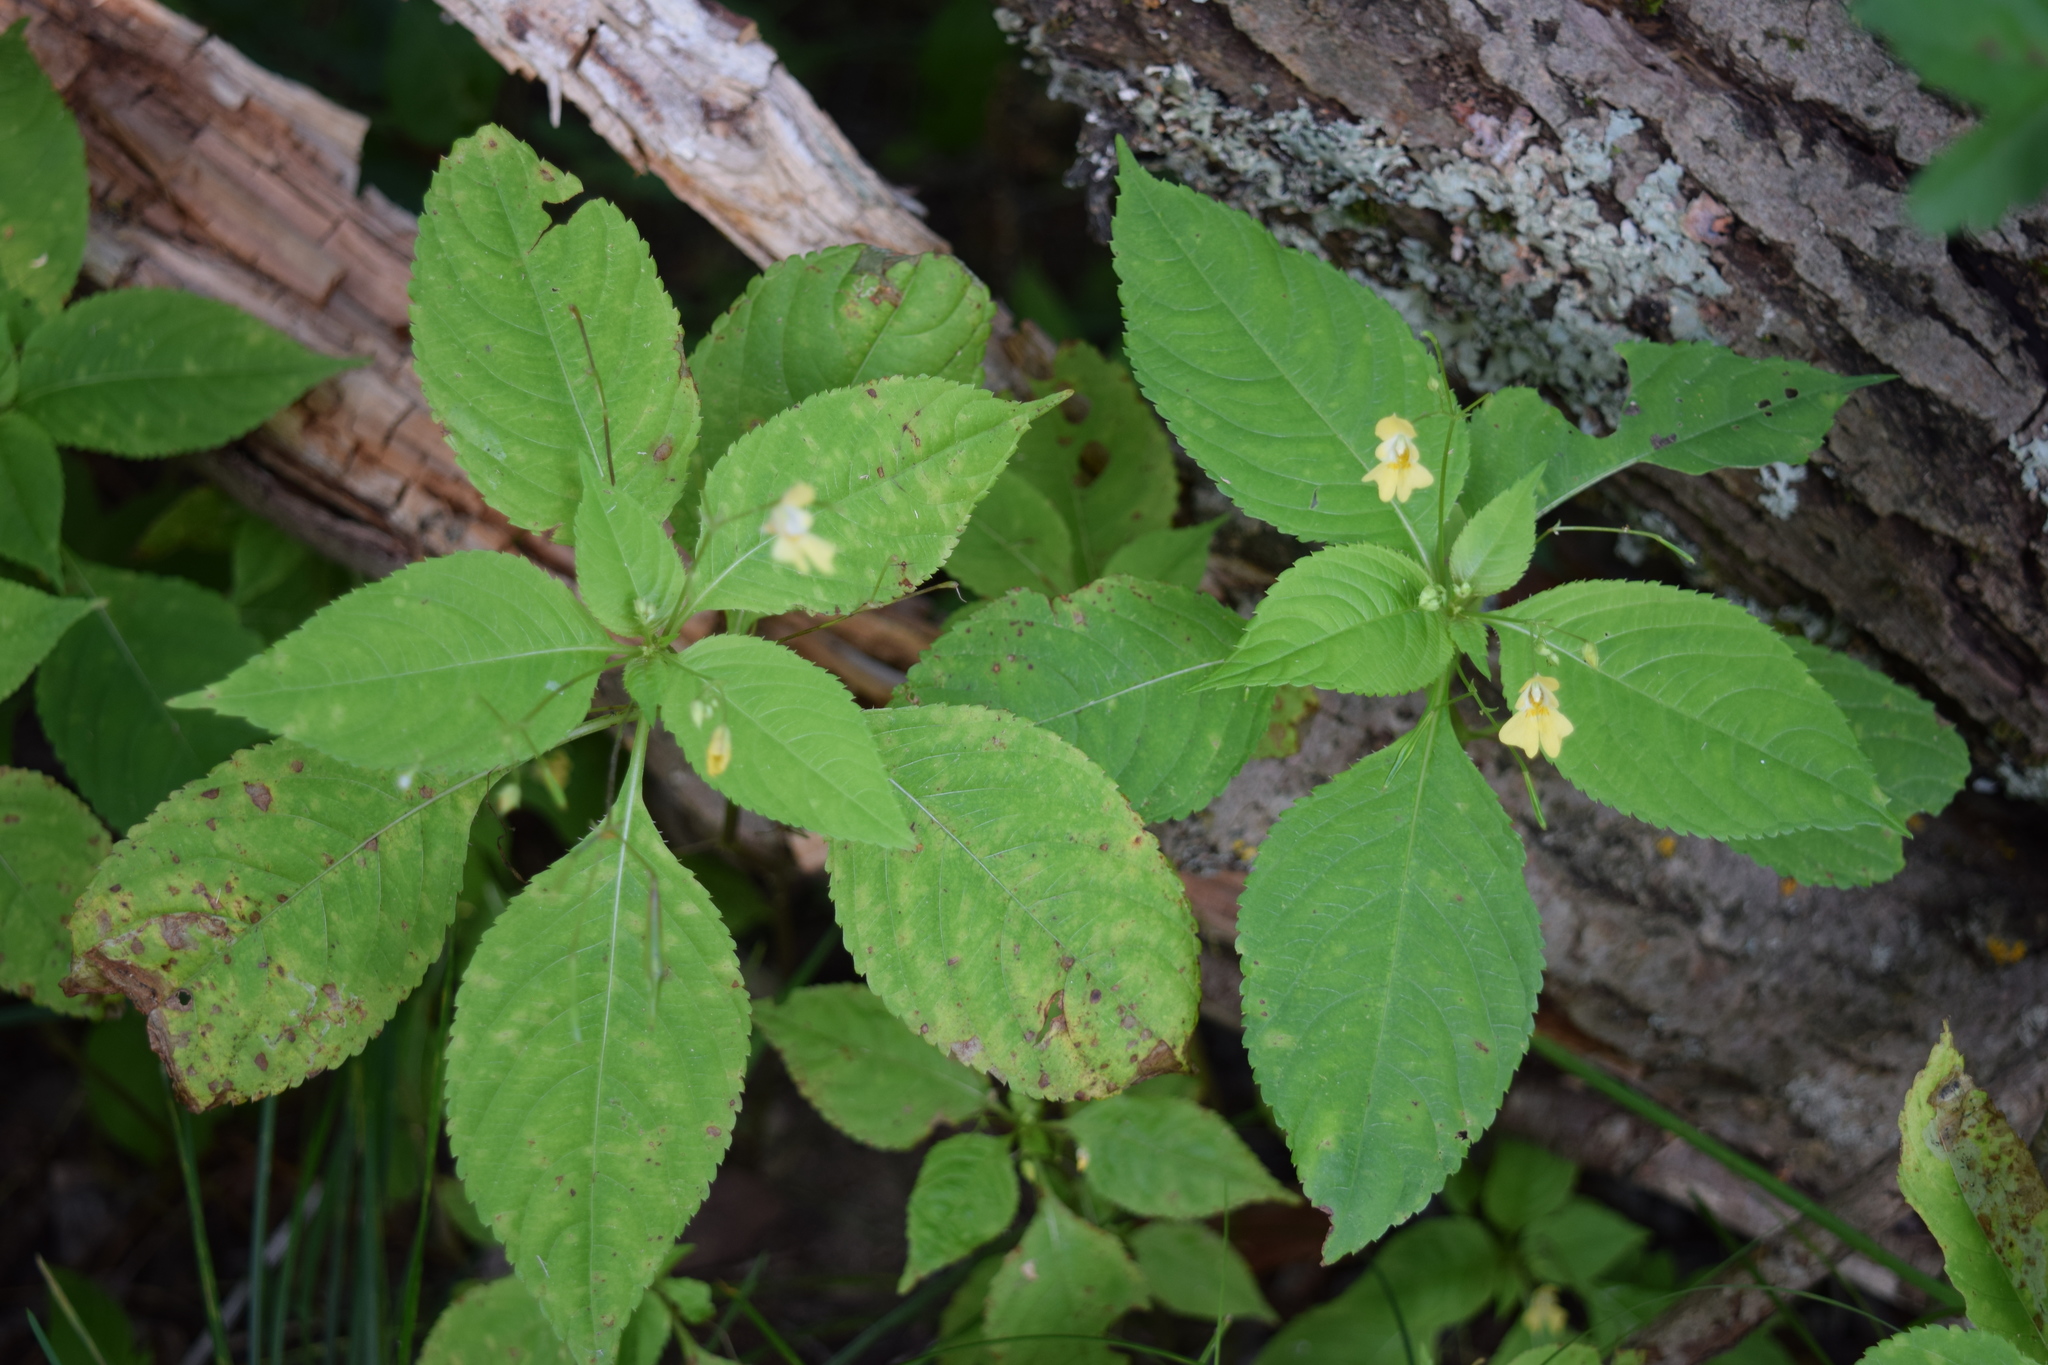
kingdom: Plantae
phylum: Tracheophyta
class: Magnoliopsida
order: Ericales
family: Balsaminaceae
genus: Impatiens
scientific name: Impatiens parviflora
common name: Small balsam
